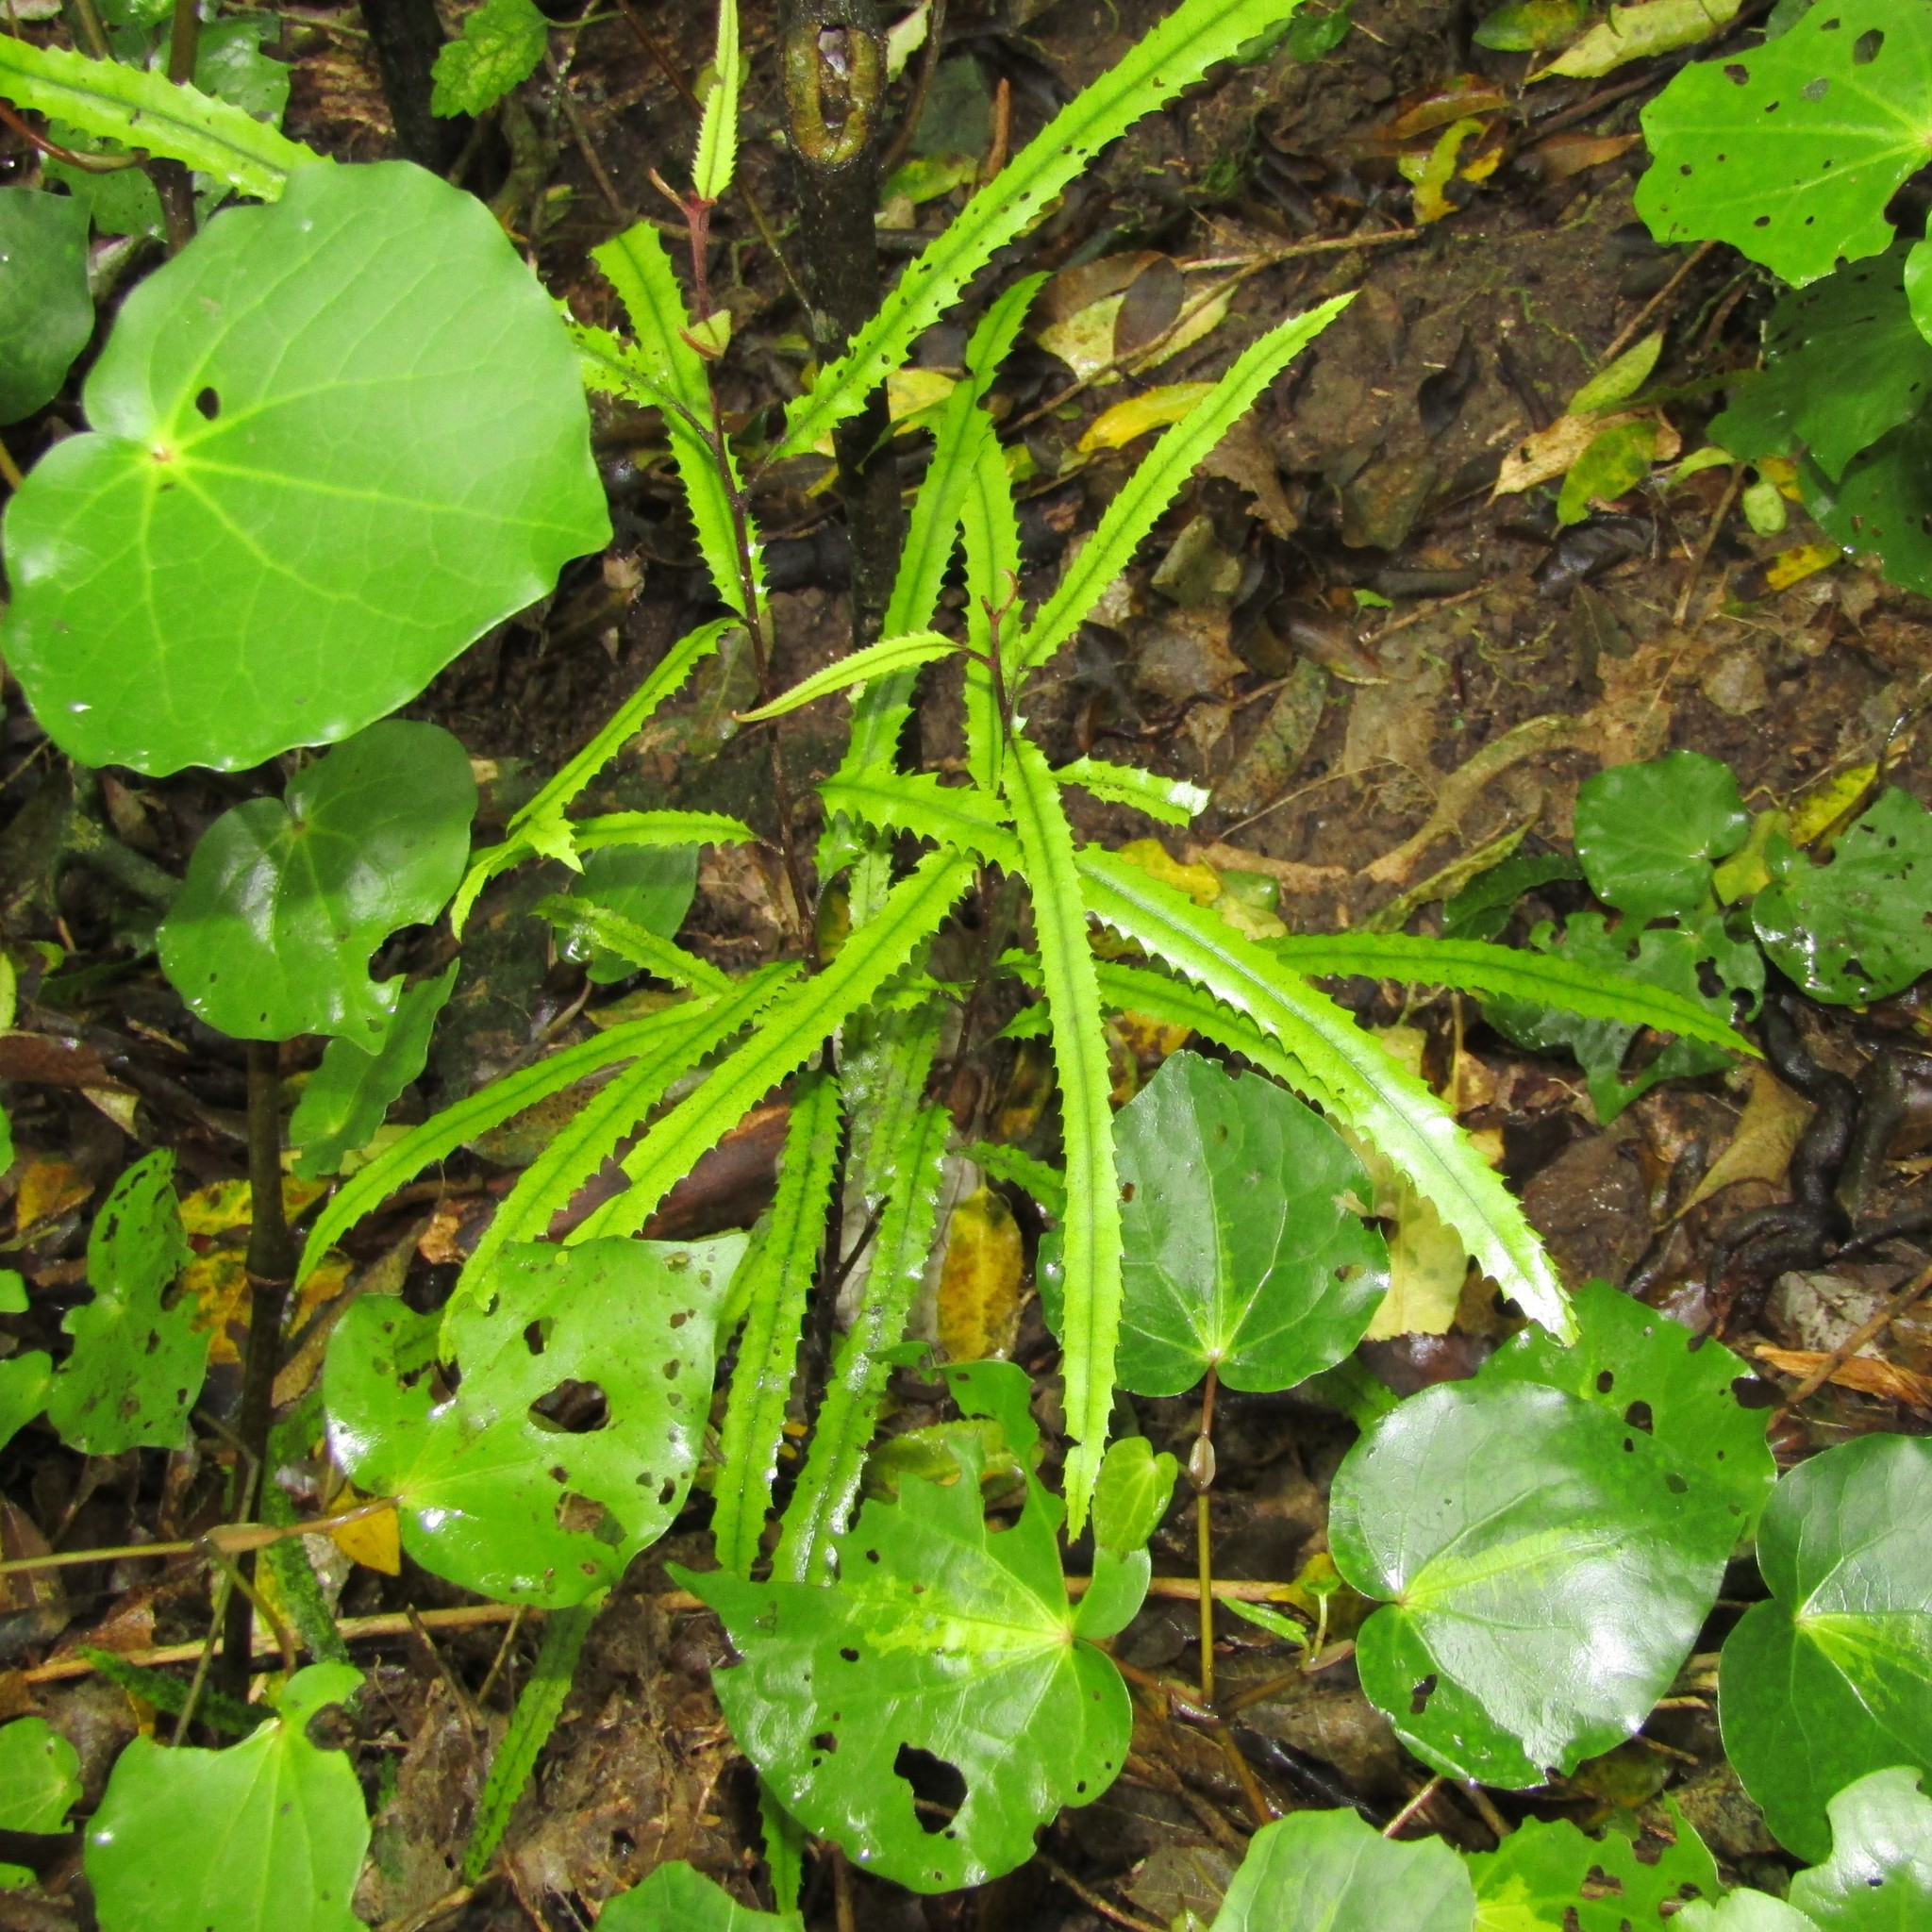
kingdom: Plantae
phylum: Tracheophyta
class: Magnoliopsida
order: Proteales
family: Proteaceae
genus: Knightia
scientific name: Knightia excelsa
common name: New zealand-honeysuckle
